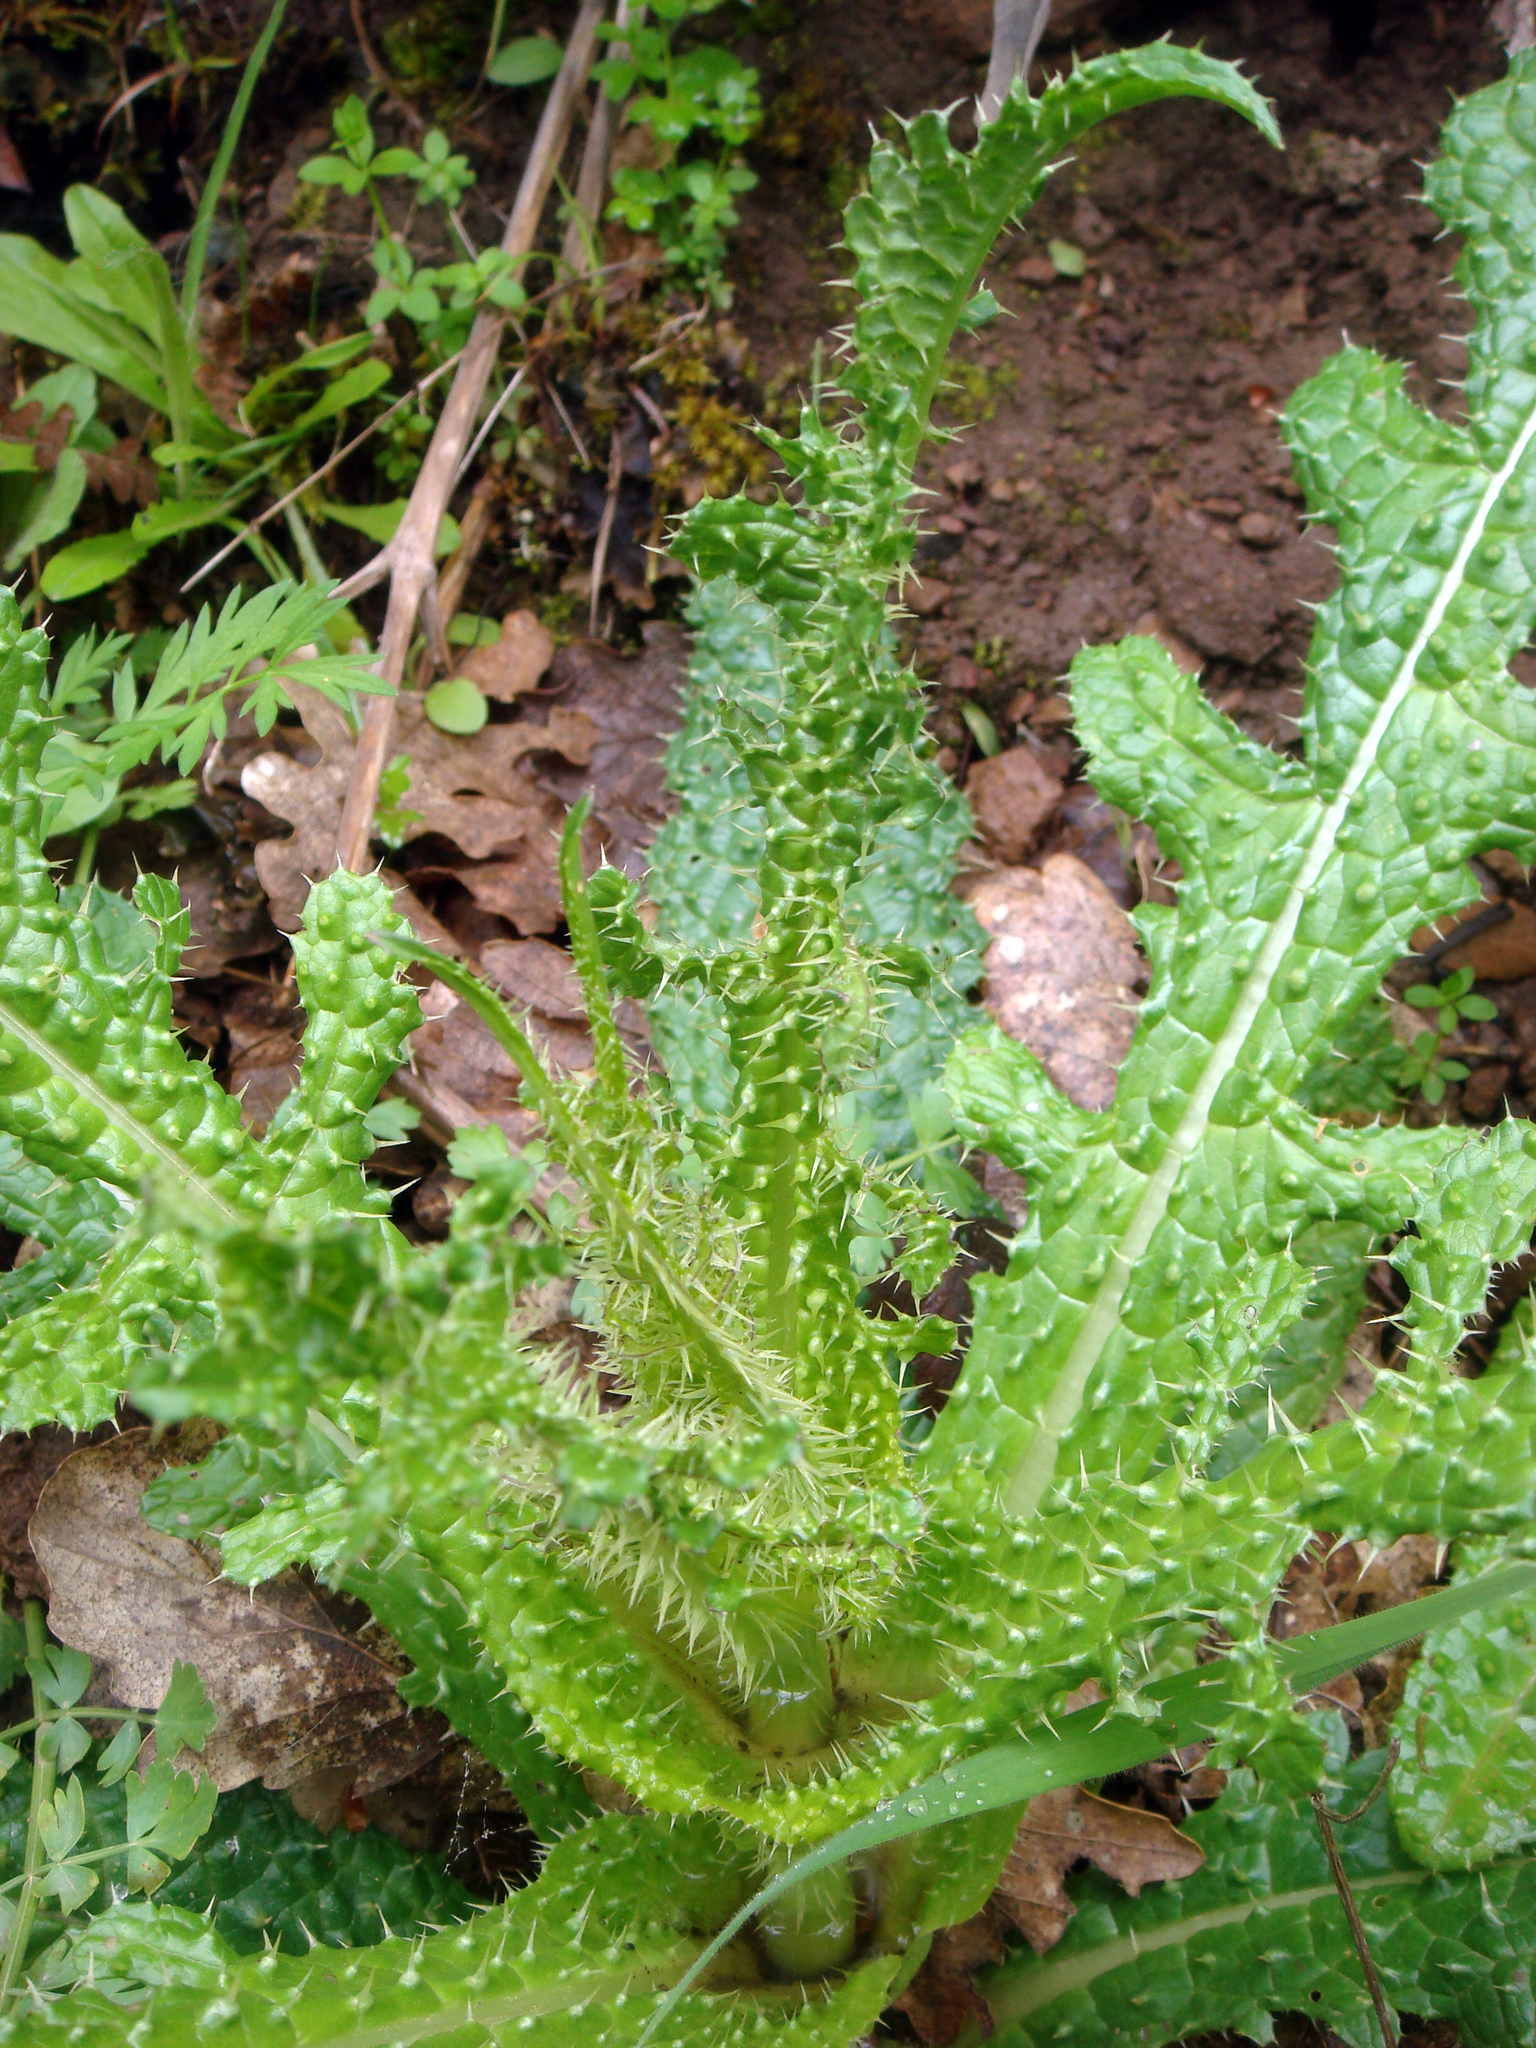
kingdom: Plantae
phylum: Tracheophyta
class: Magnoliopsida
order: Dipsacales
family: Caprifoliaceae
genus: Dipsacus
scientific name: Dipsacus ferox
